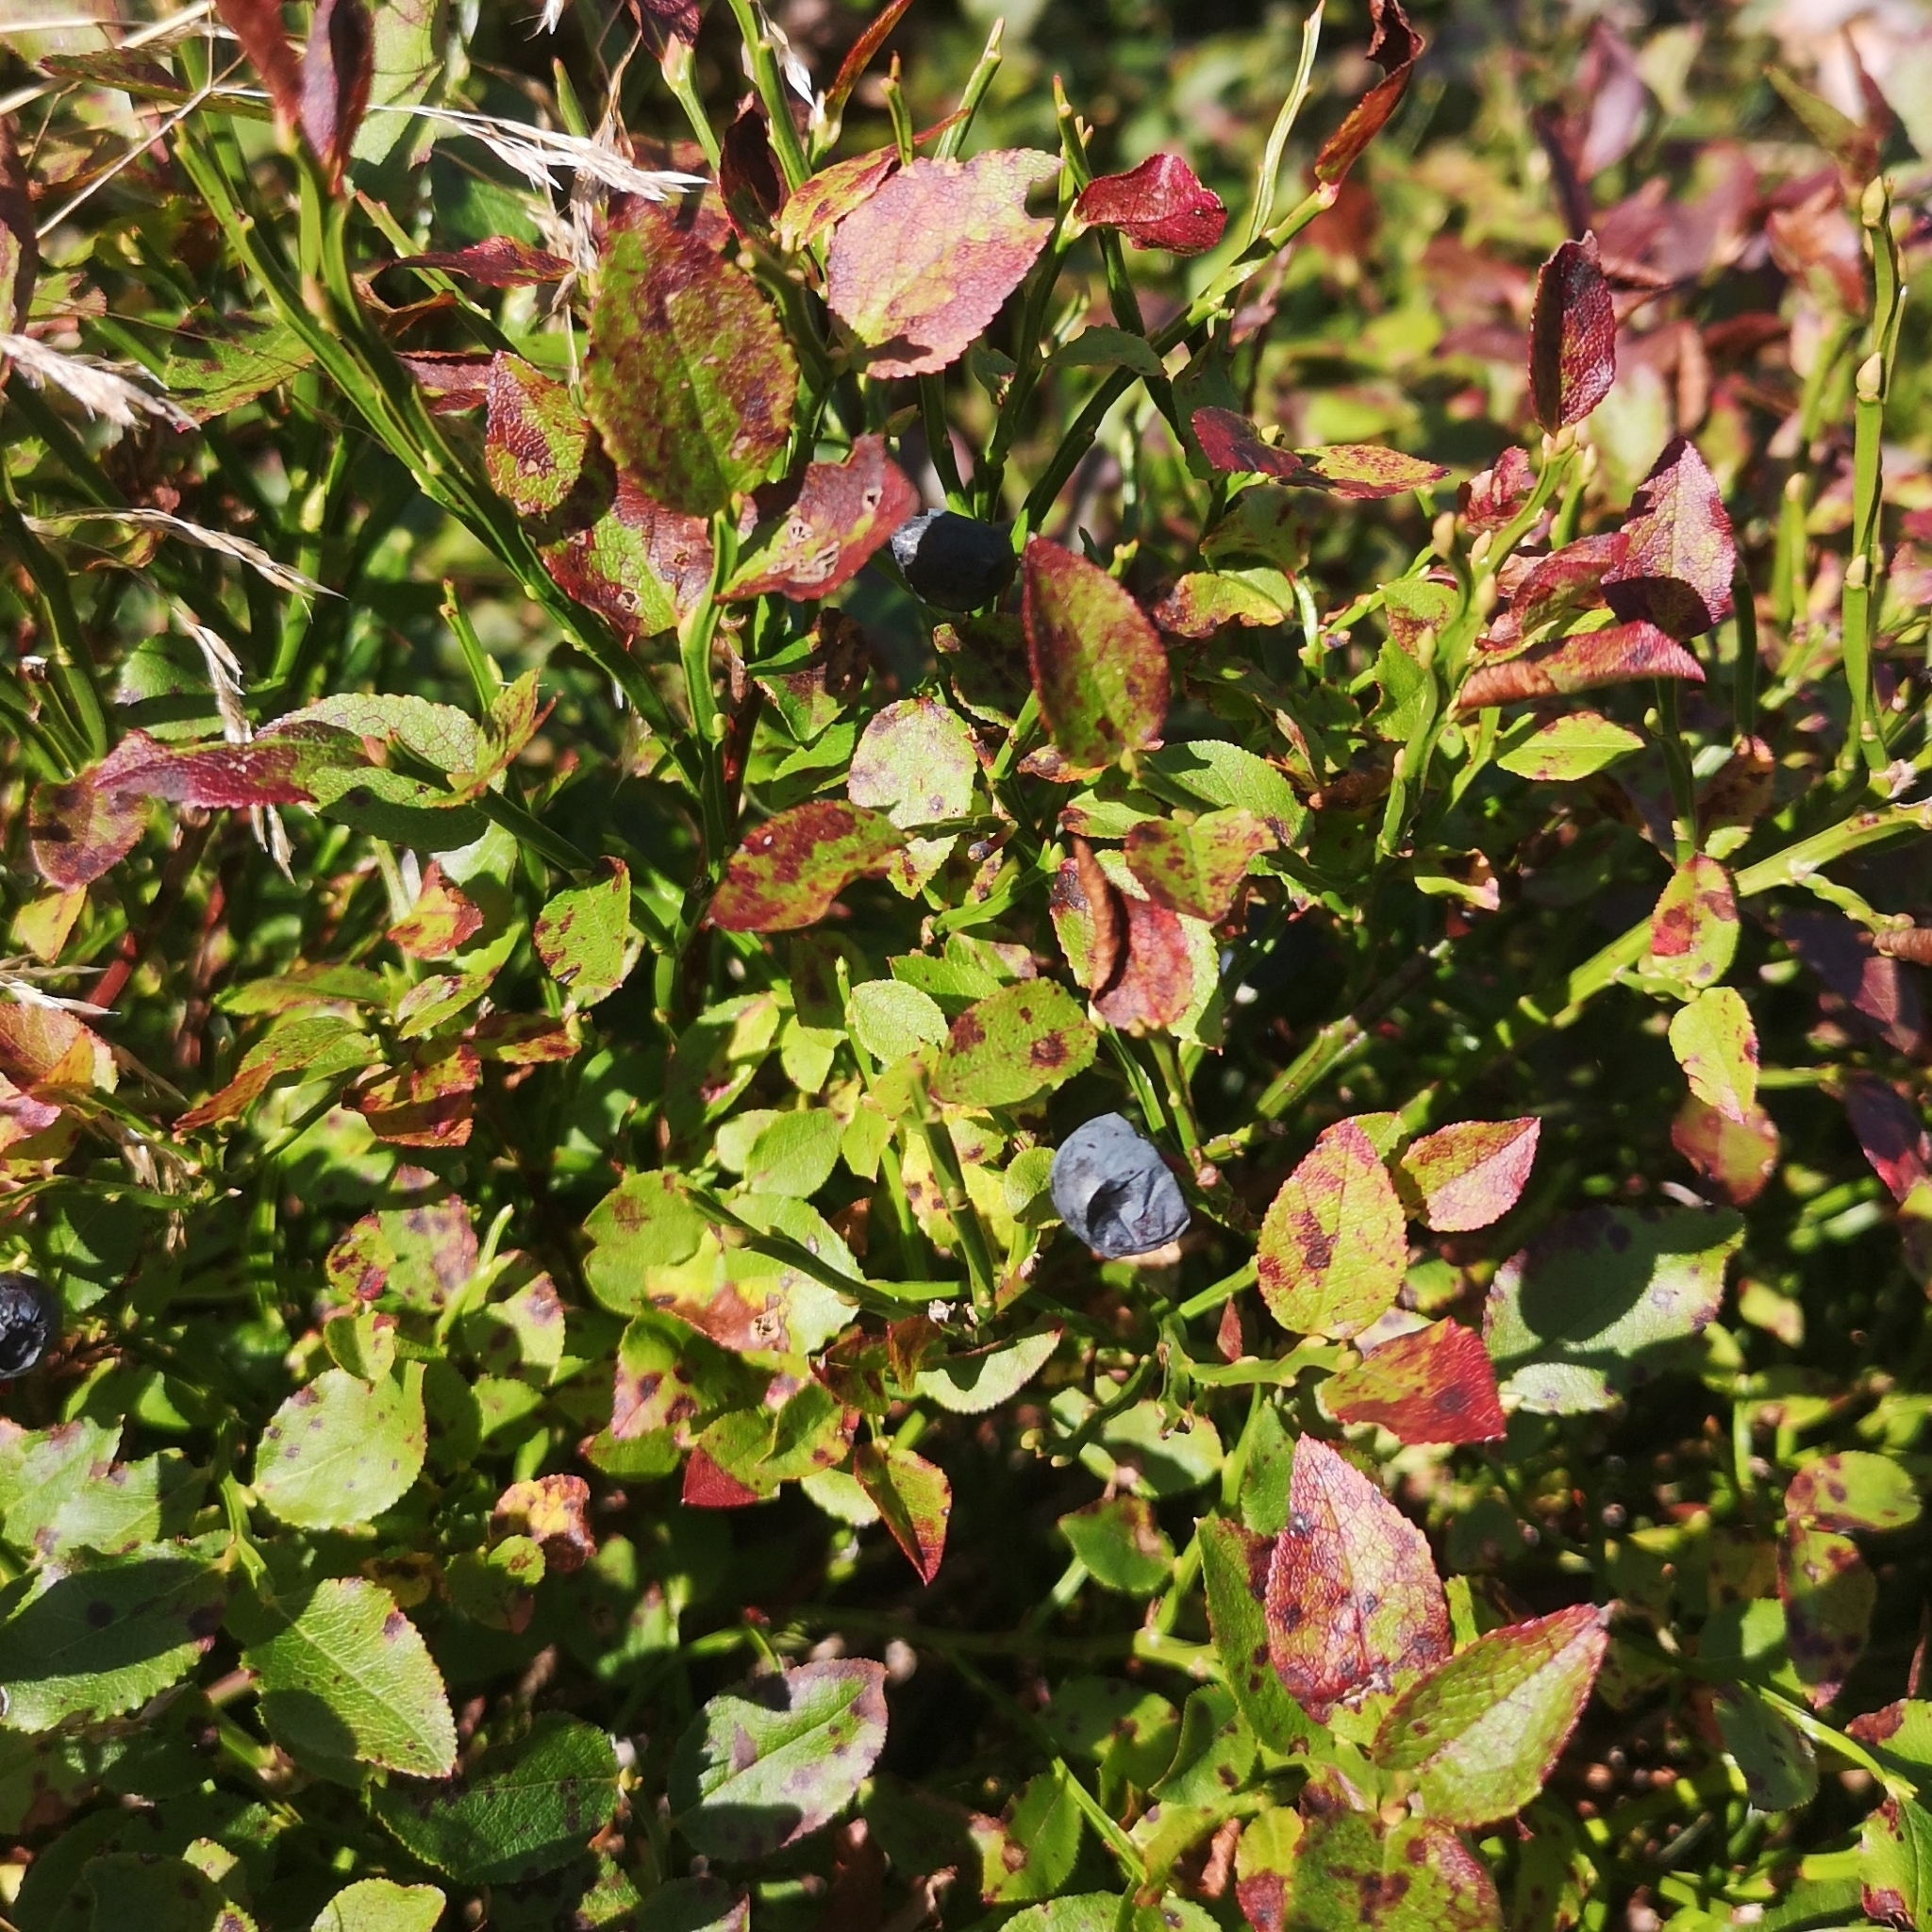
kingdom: Plantae
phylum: Tracheophyta
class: Magnoliopsida
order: Ericales
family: Ericaceae
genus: Vaccinium
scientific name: Vaccinium myrtillus
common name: Bilberry
